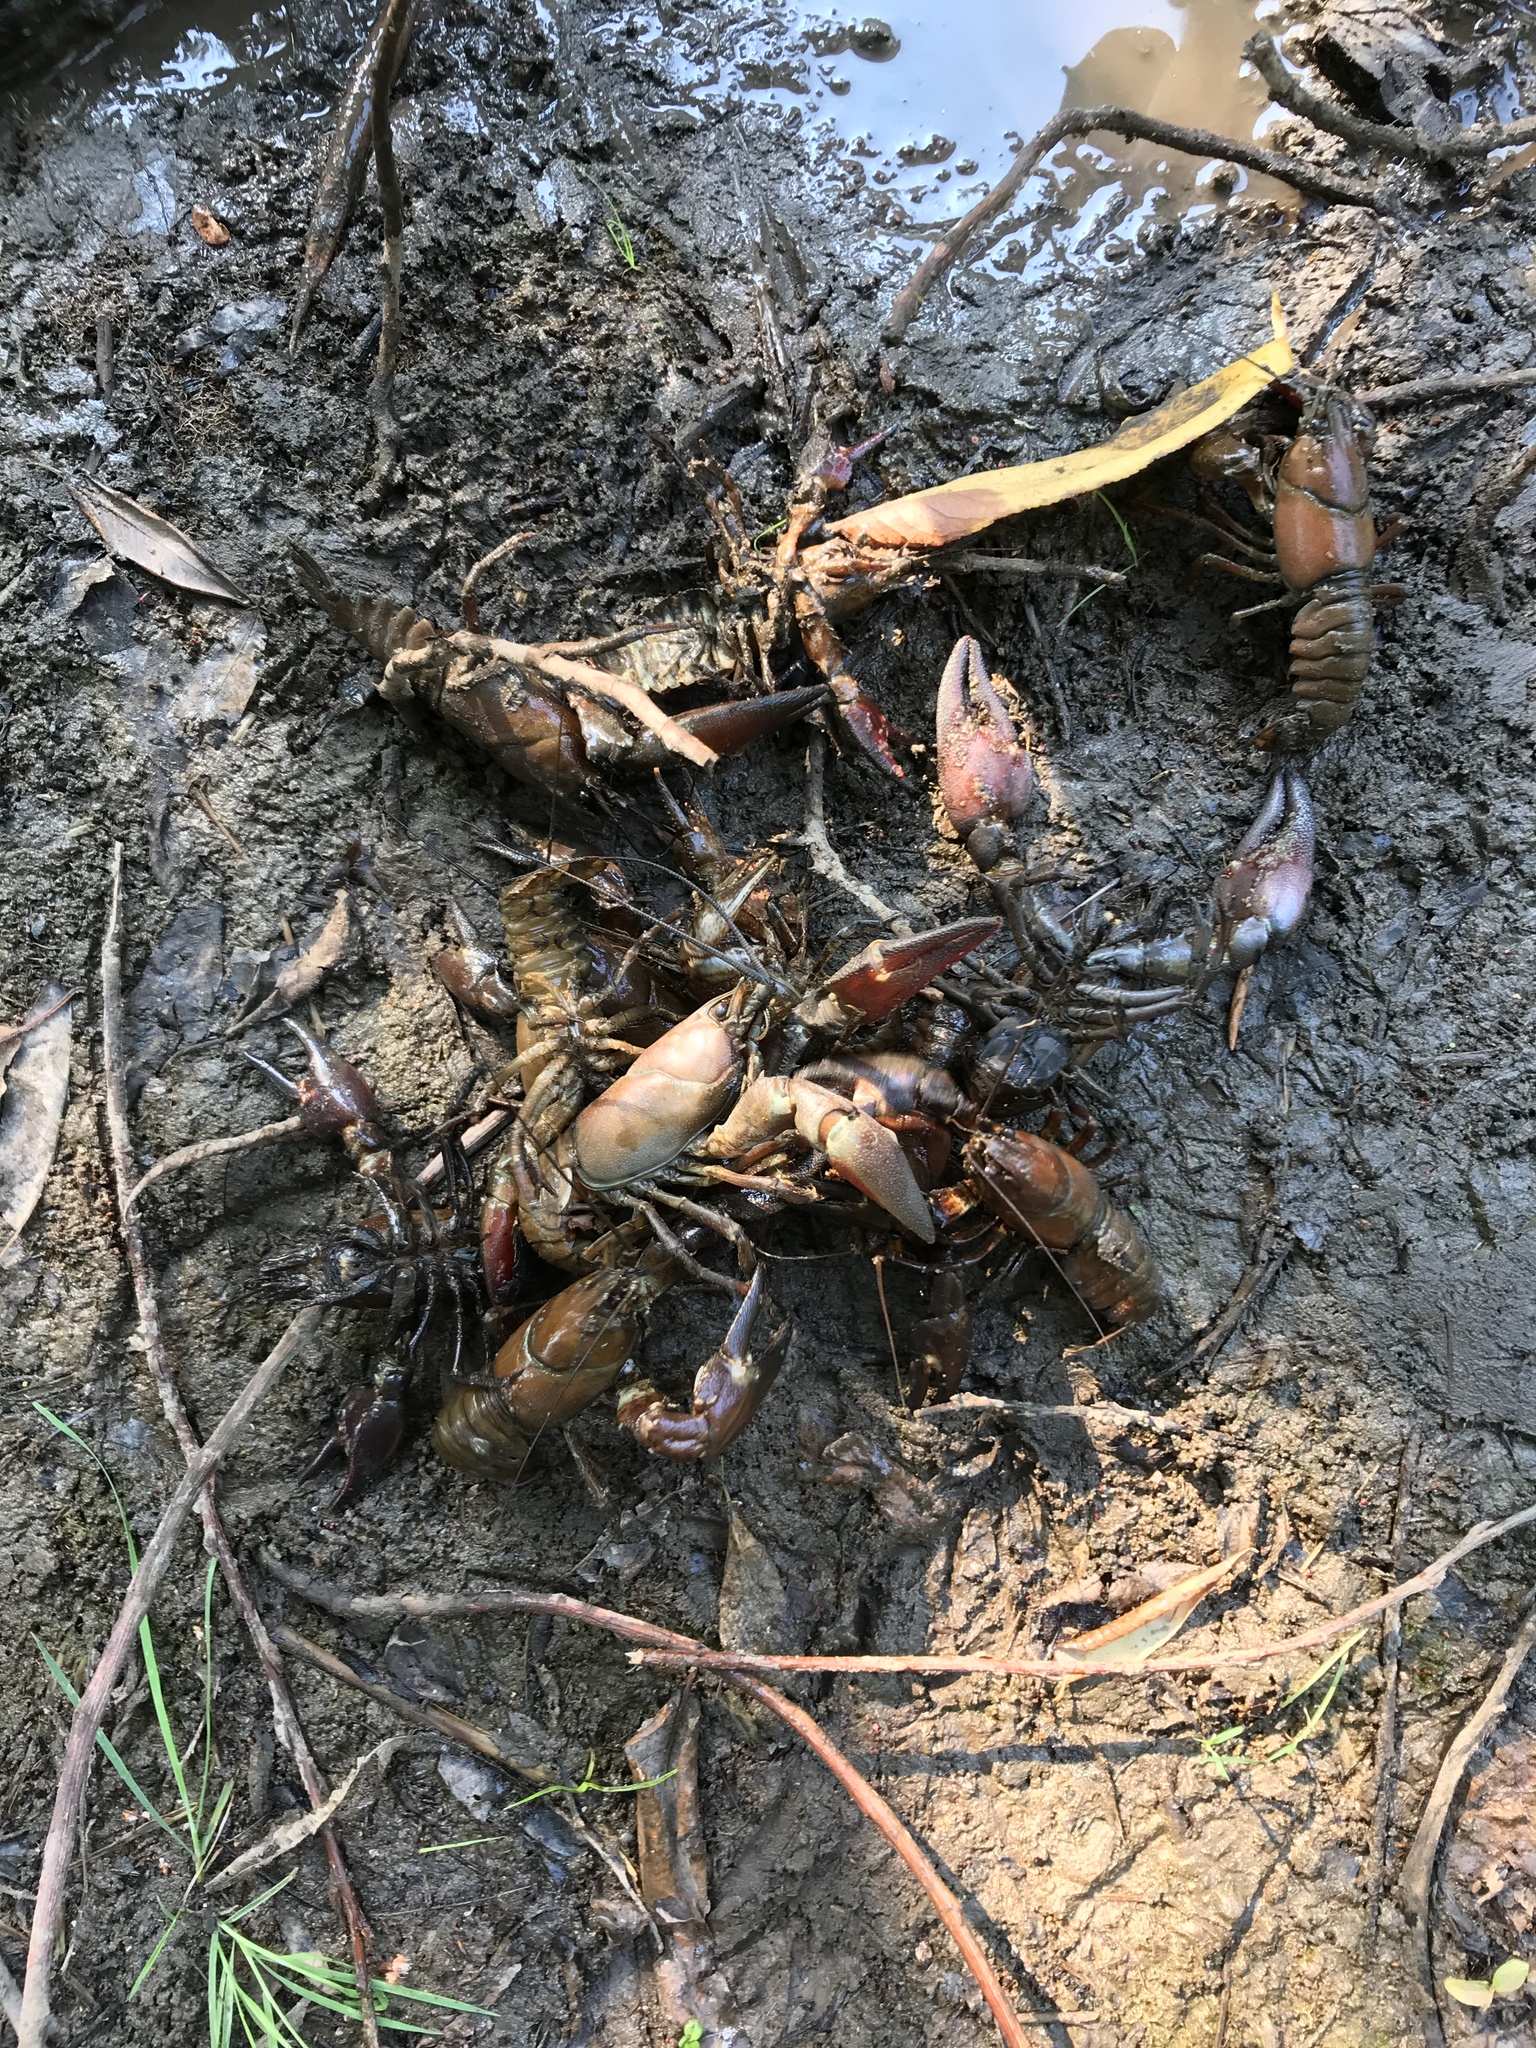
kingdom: Animalia
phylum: Arthropoda
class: Malacostraca
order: Decapoda
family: Astacidae
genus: Pacifastacus
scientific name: Pacifastacus leniusculus
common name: Signal crayfish
